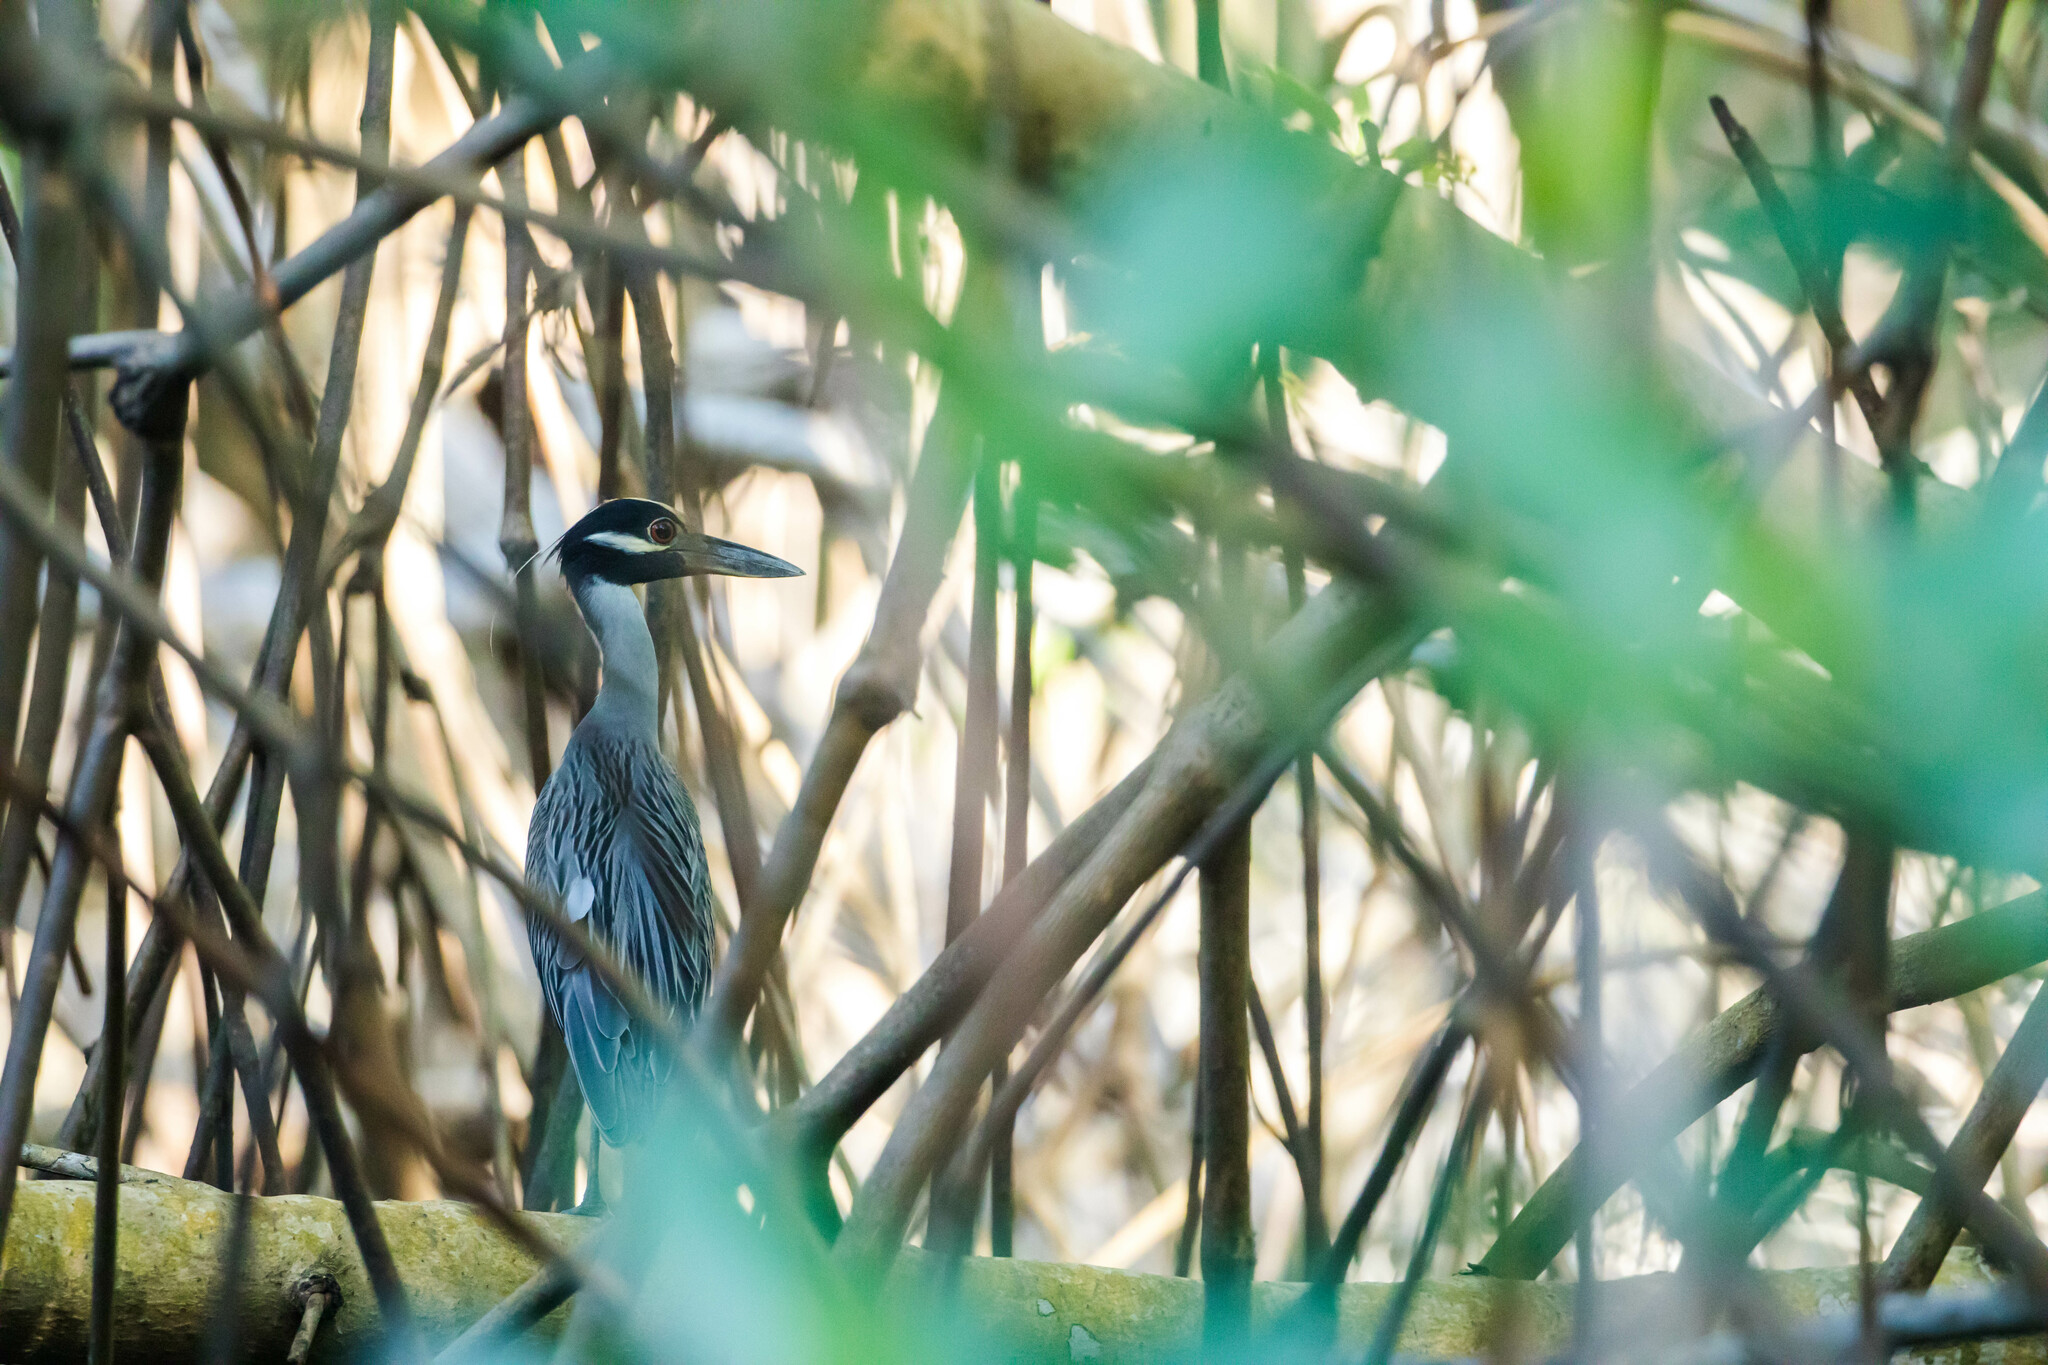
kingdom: Animalia
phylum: Chordata
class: Aves
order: Pelecaniformes
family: Ardeidae
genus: Nyctanassa
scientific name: Nyctanassa violacea
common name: Yellow-crowned night heron
